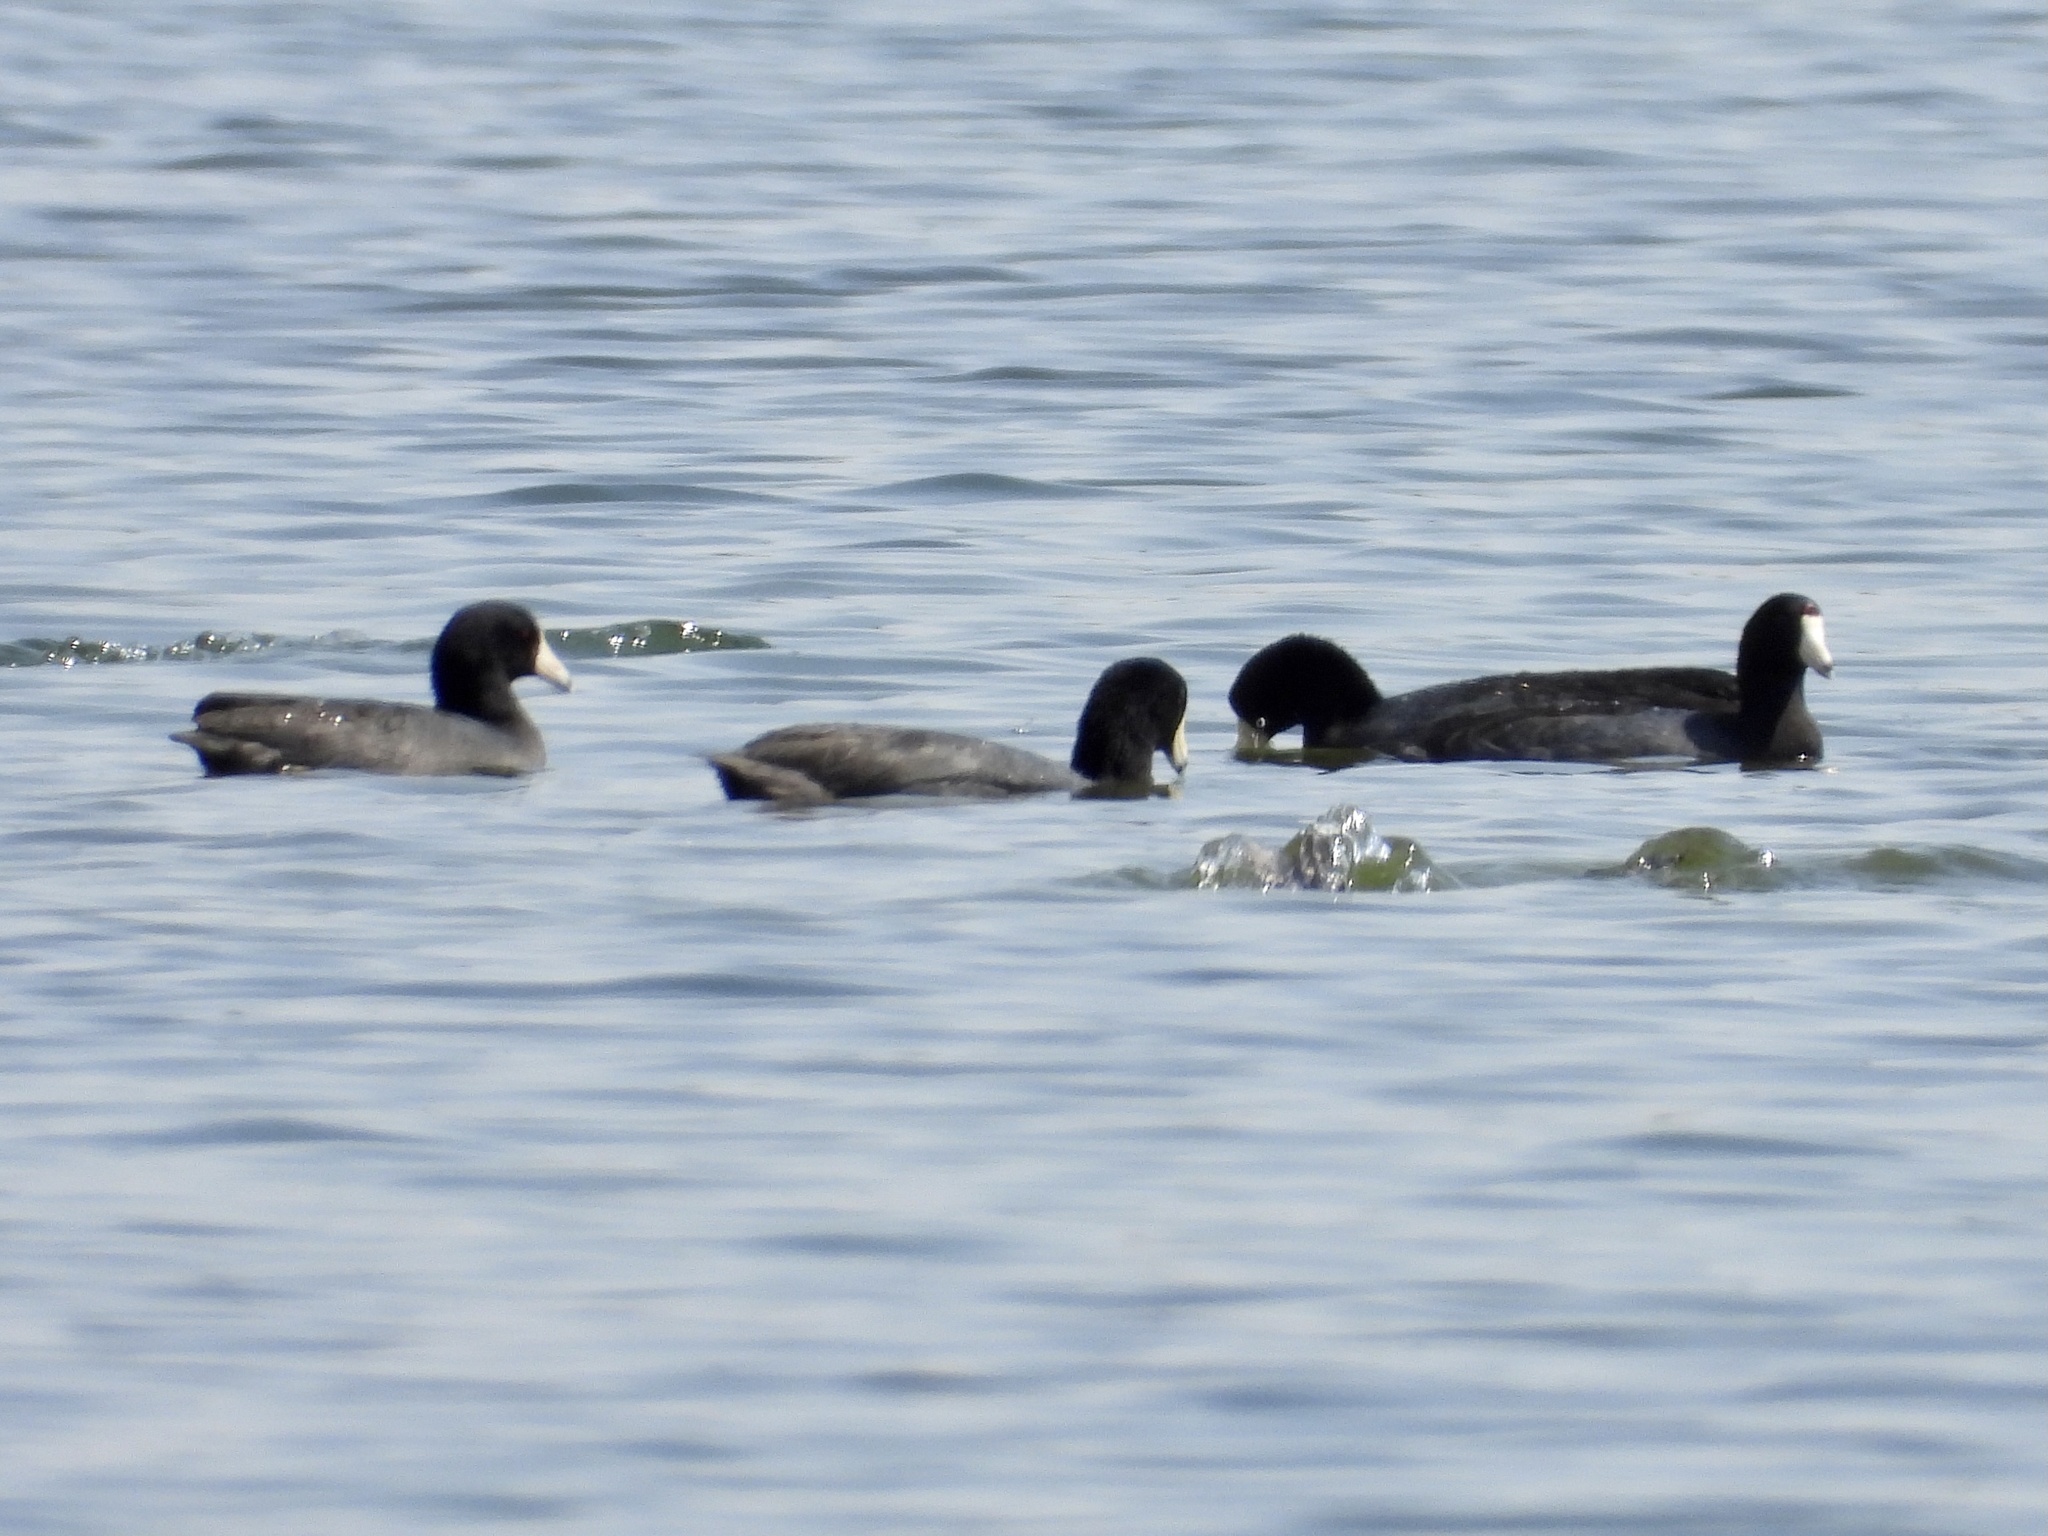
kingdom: Animalia
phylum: Chordata
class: Aves
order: Gruiformes
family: Rallidae
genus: Fulica
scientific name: Fulica americana
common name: American coot
